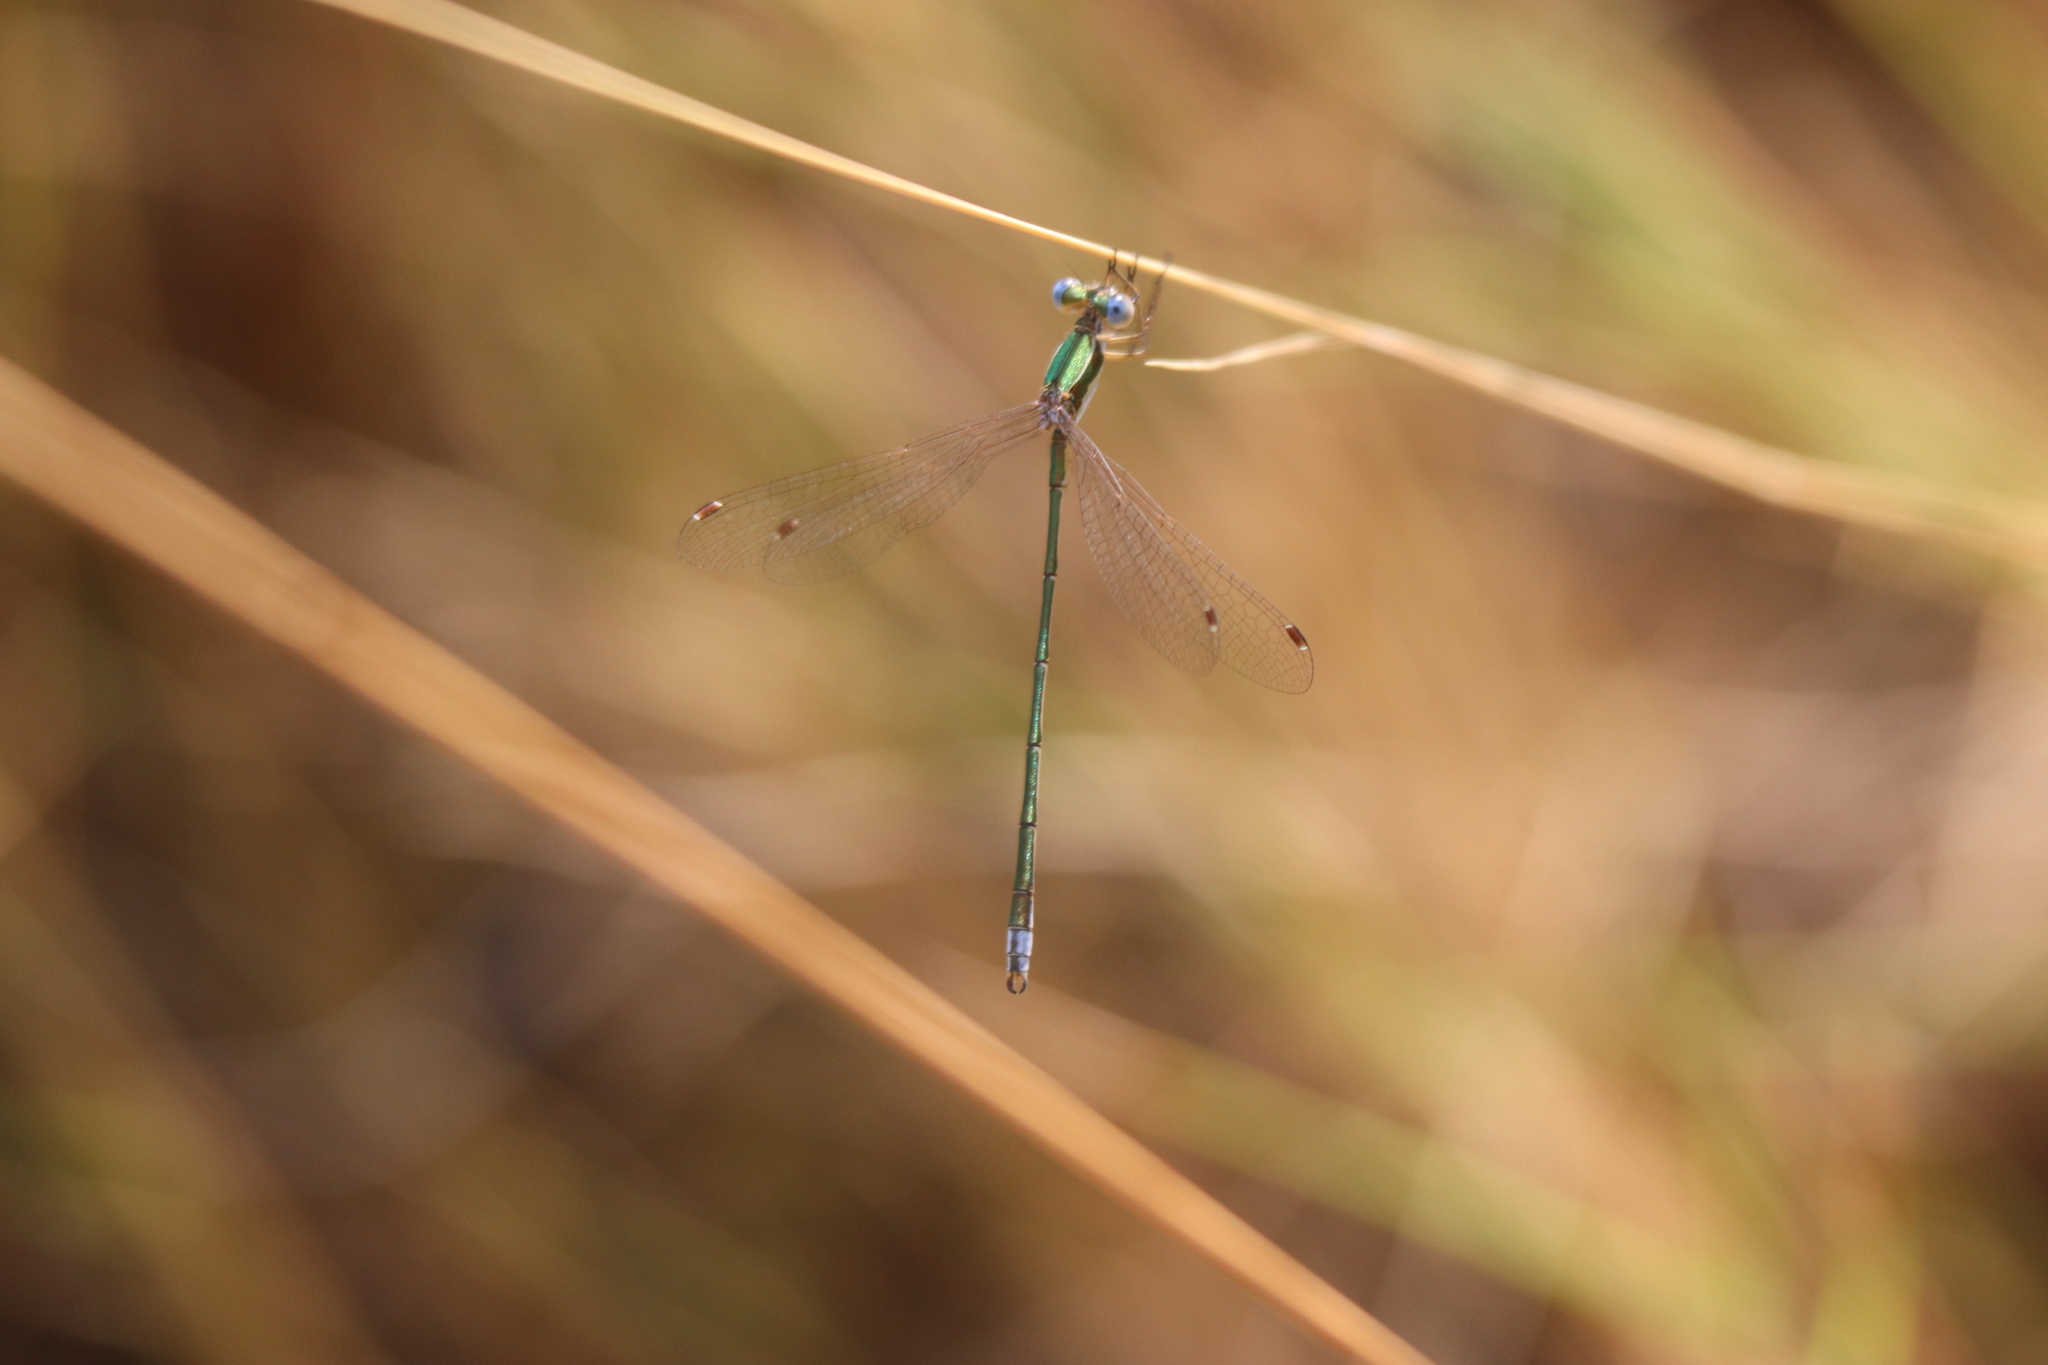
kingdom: Animalia
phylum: Arthropoda
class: Insecta
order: Odonata
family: Lestidae
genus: Lestes
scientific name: Lestes virens
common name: Small emerald spreadwing
